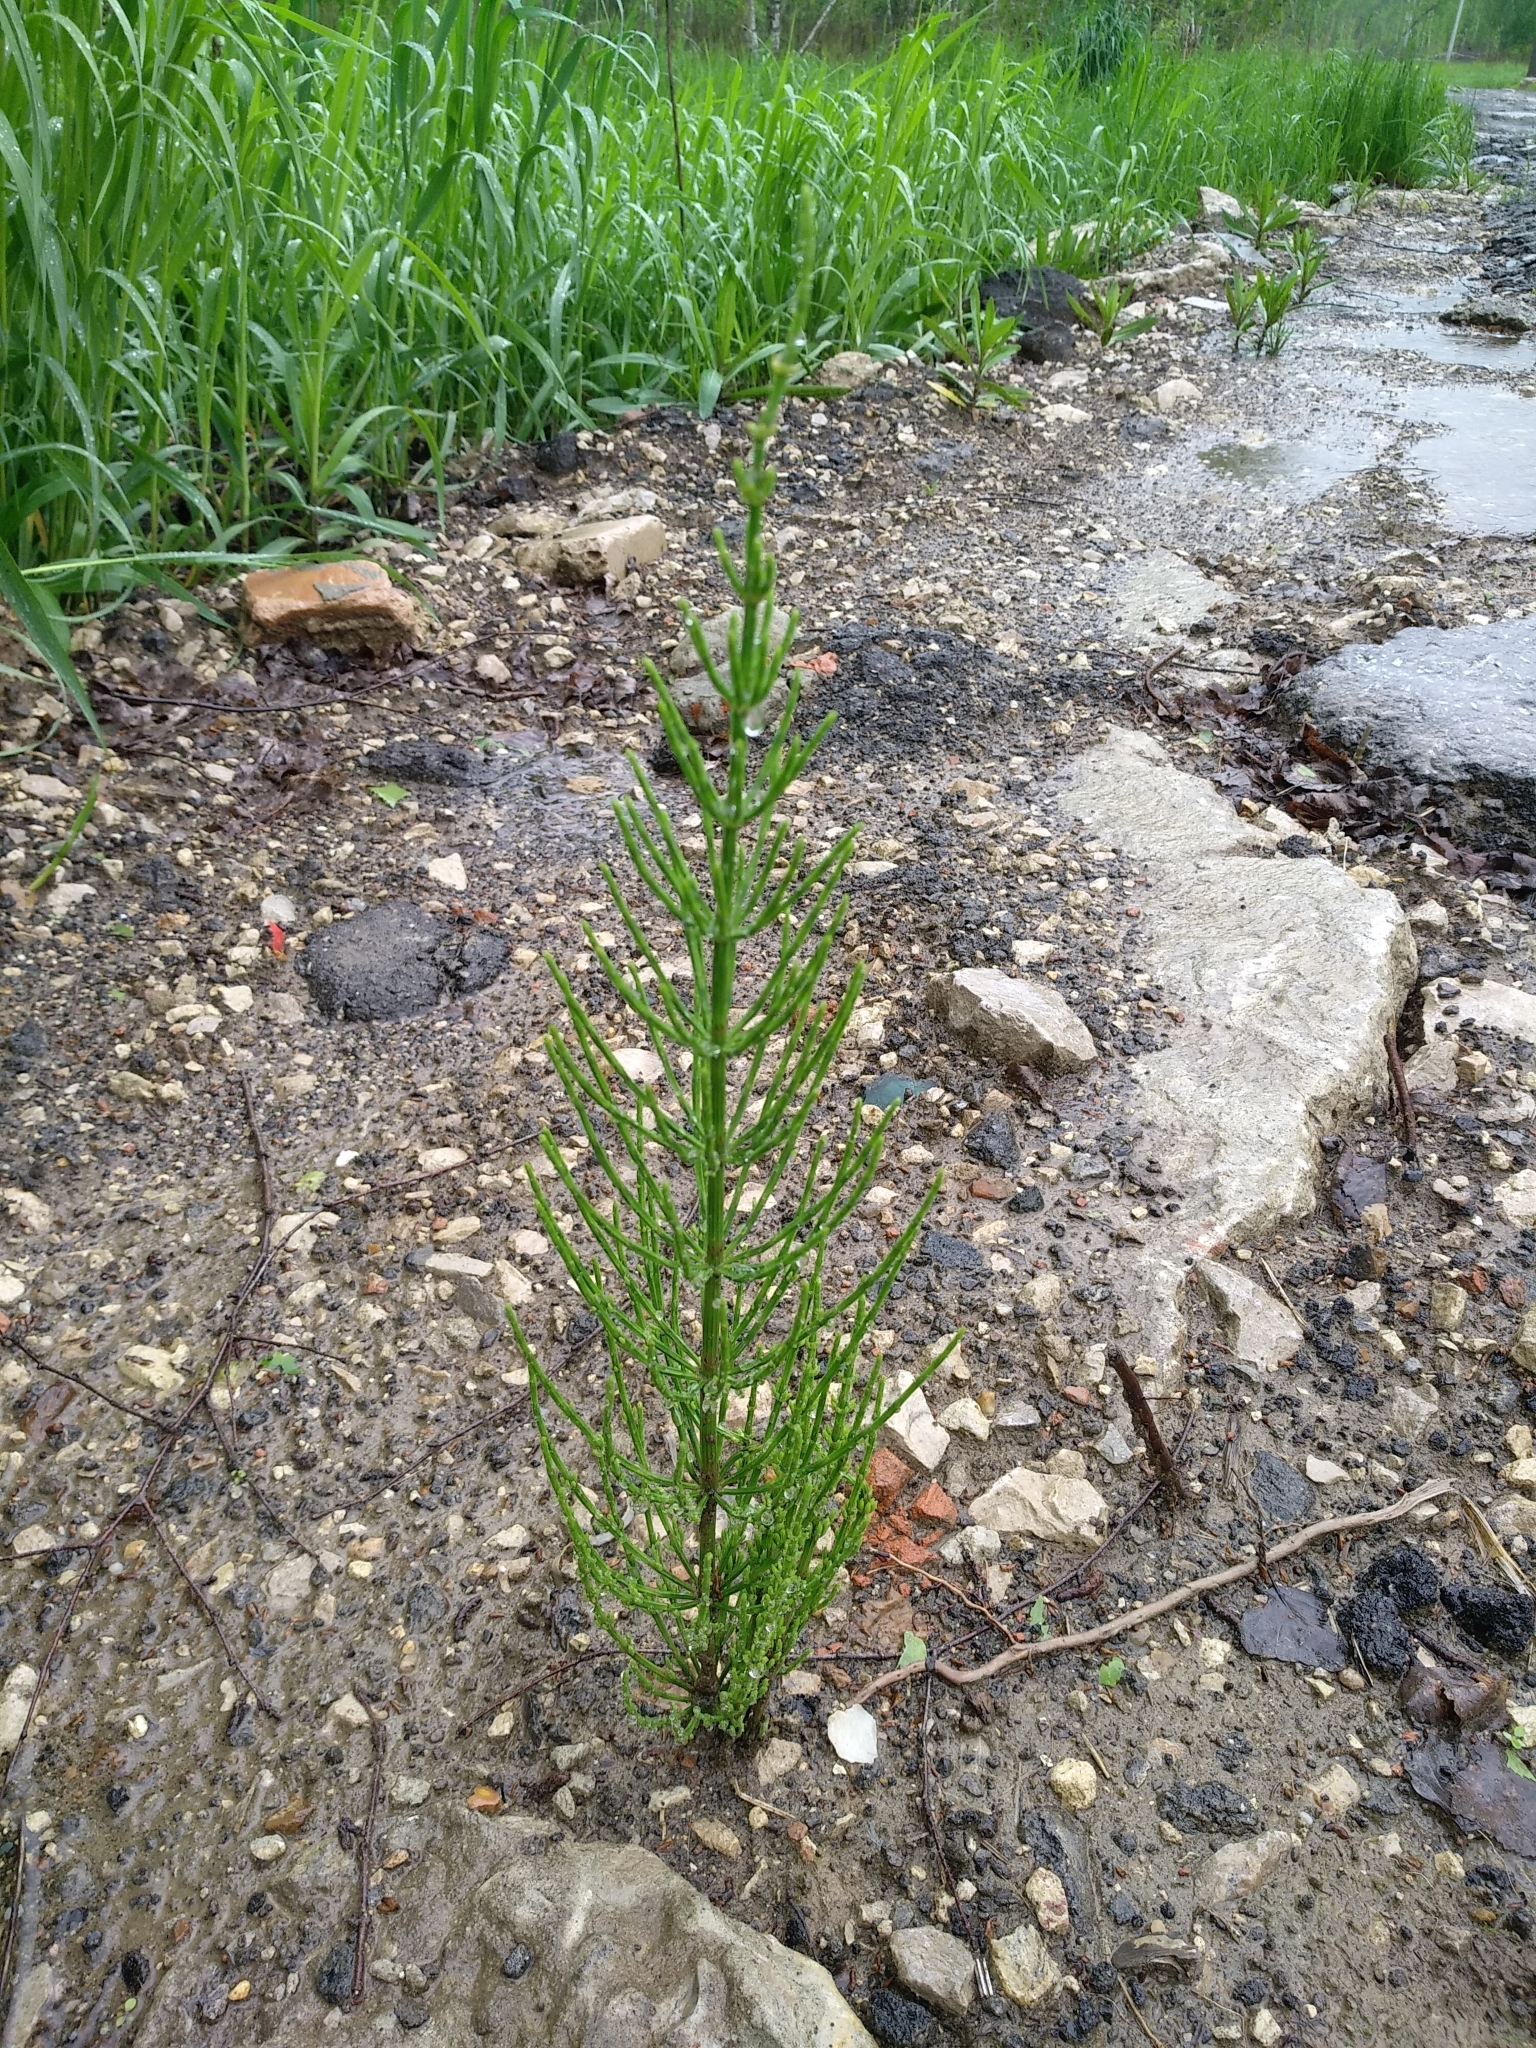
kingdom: Plantae
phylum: Tracheophyta
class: Polypodiopsida
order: Equisetales
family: Equisetaceae
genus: Equisetum
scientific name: Equisetum arvense
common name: Field horsetail
